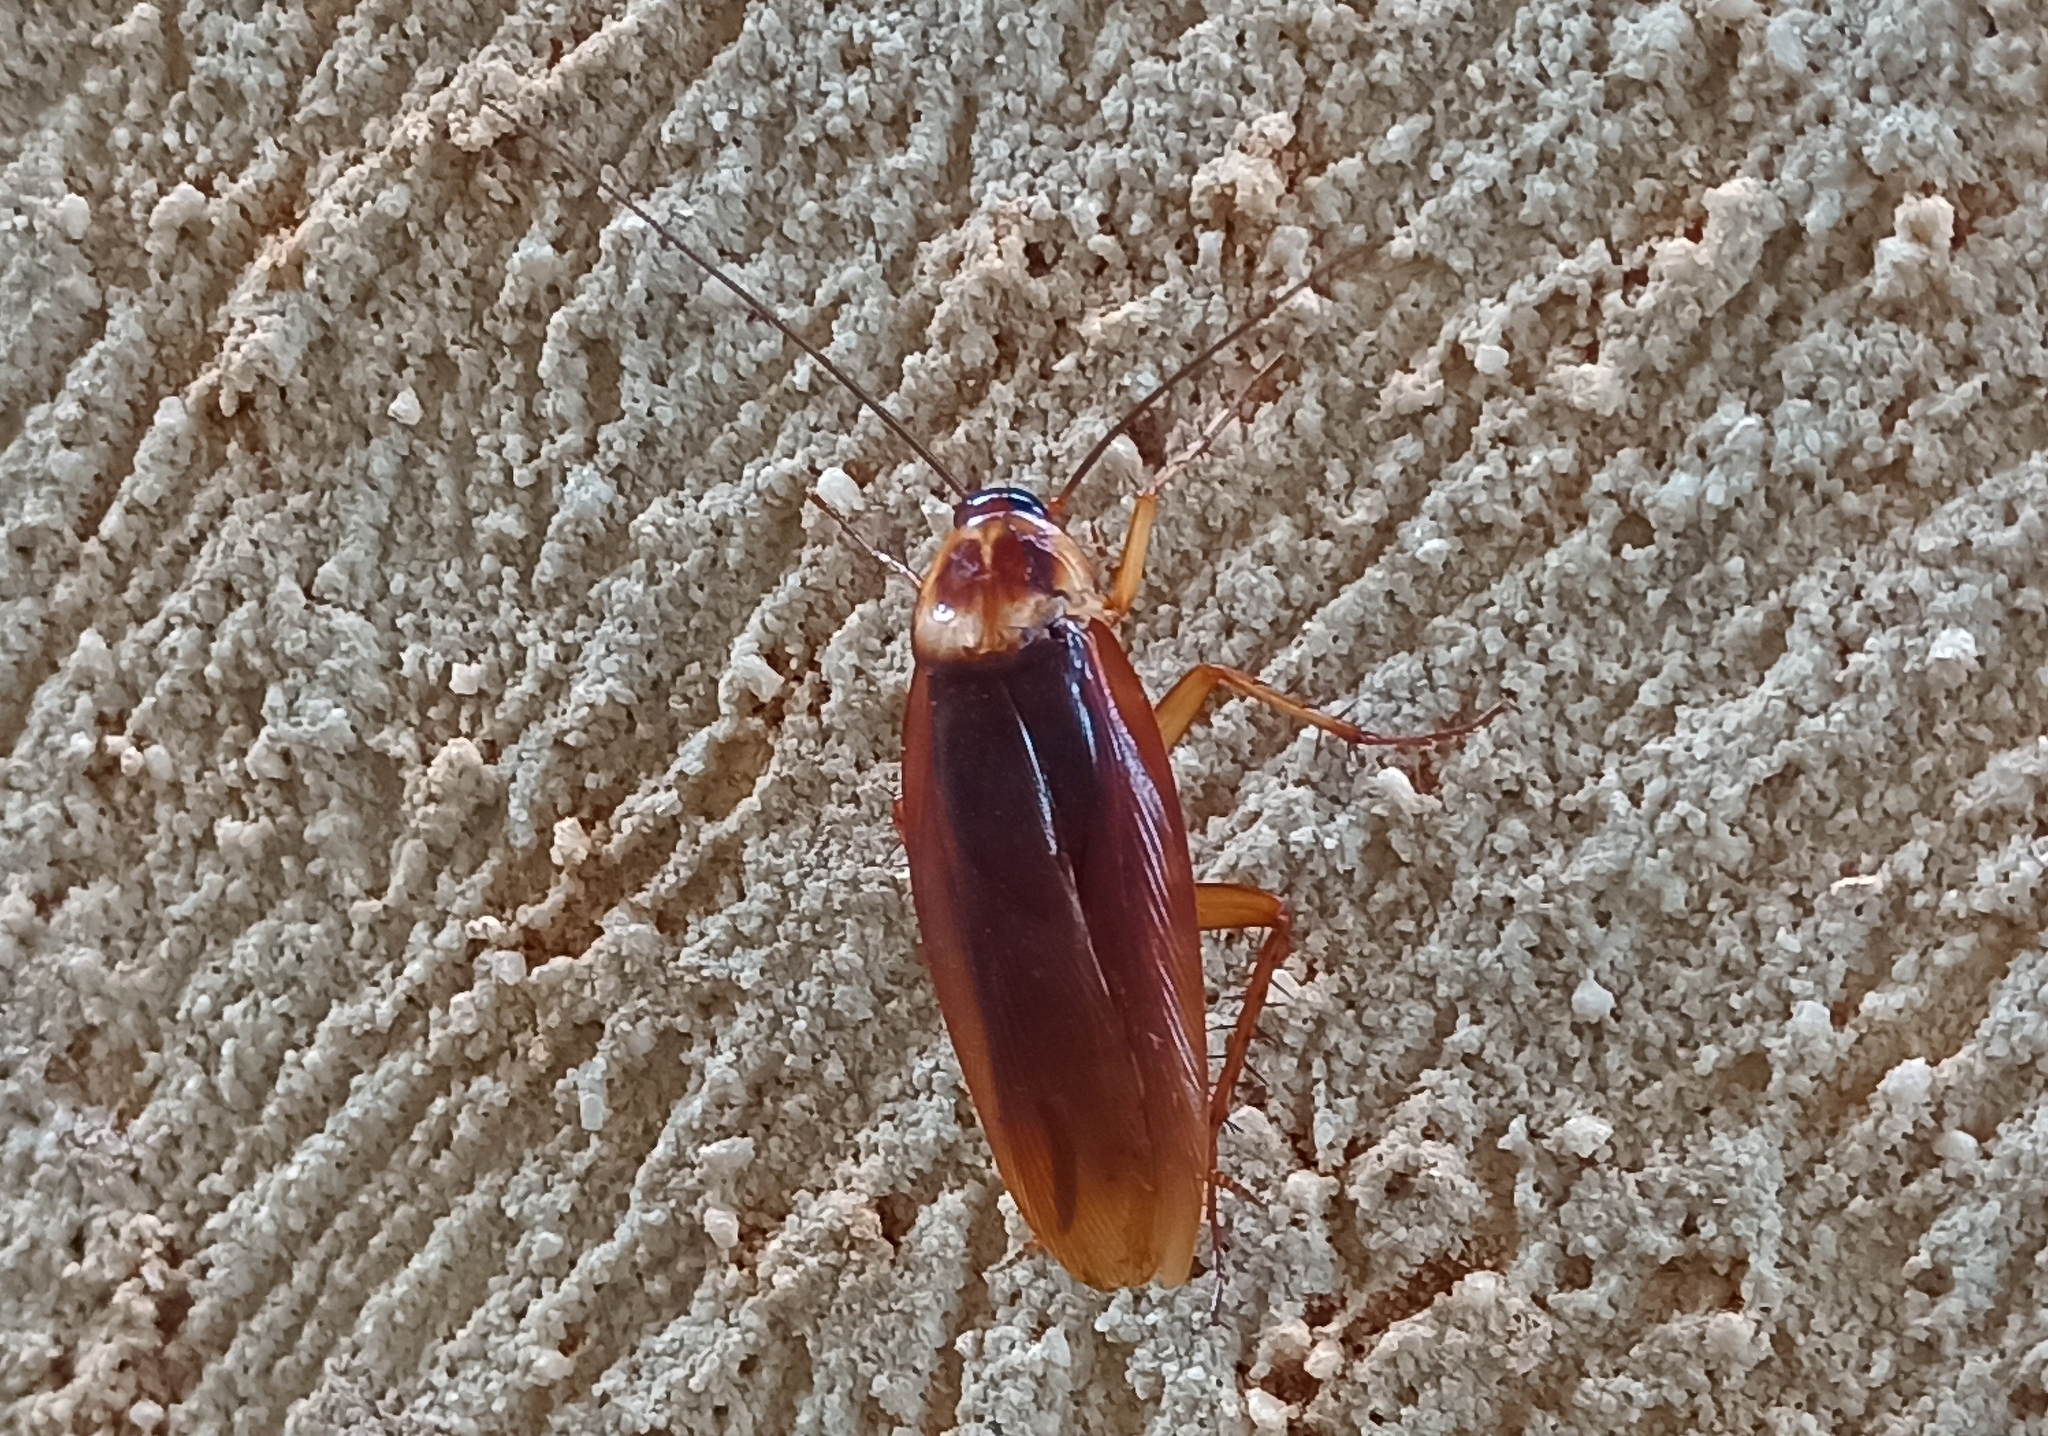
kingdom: Animalia
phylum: Arthropoda
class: Insecta
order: Blattodea
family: Blattidae
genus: Periplaneta
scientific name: Periplaneta americana
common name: American cockroach
